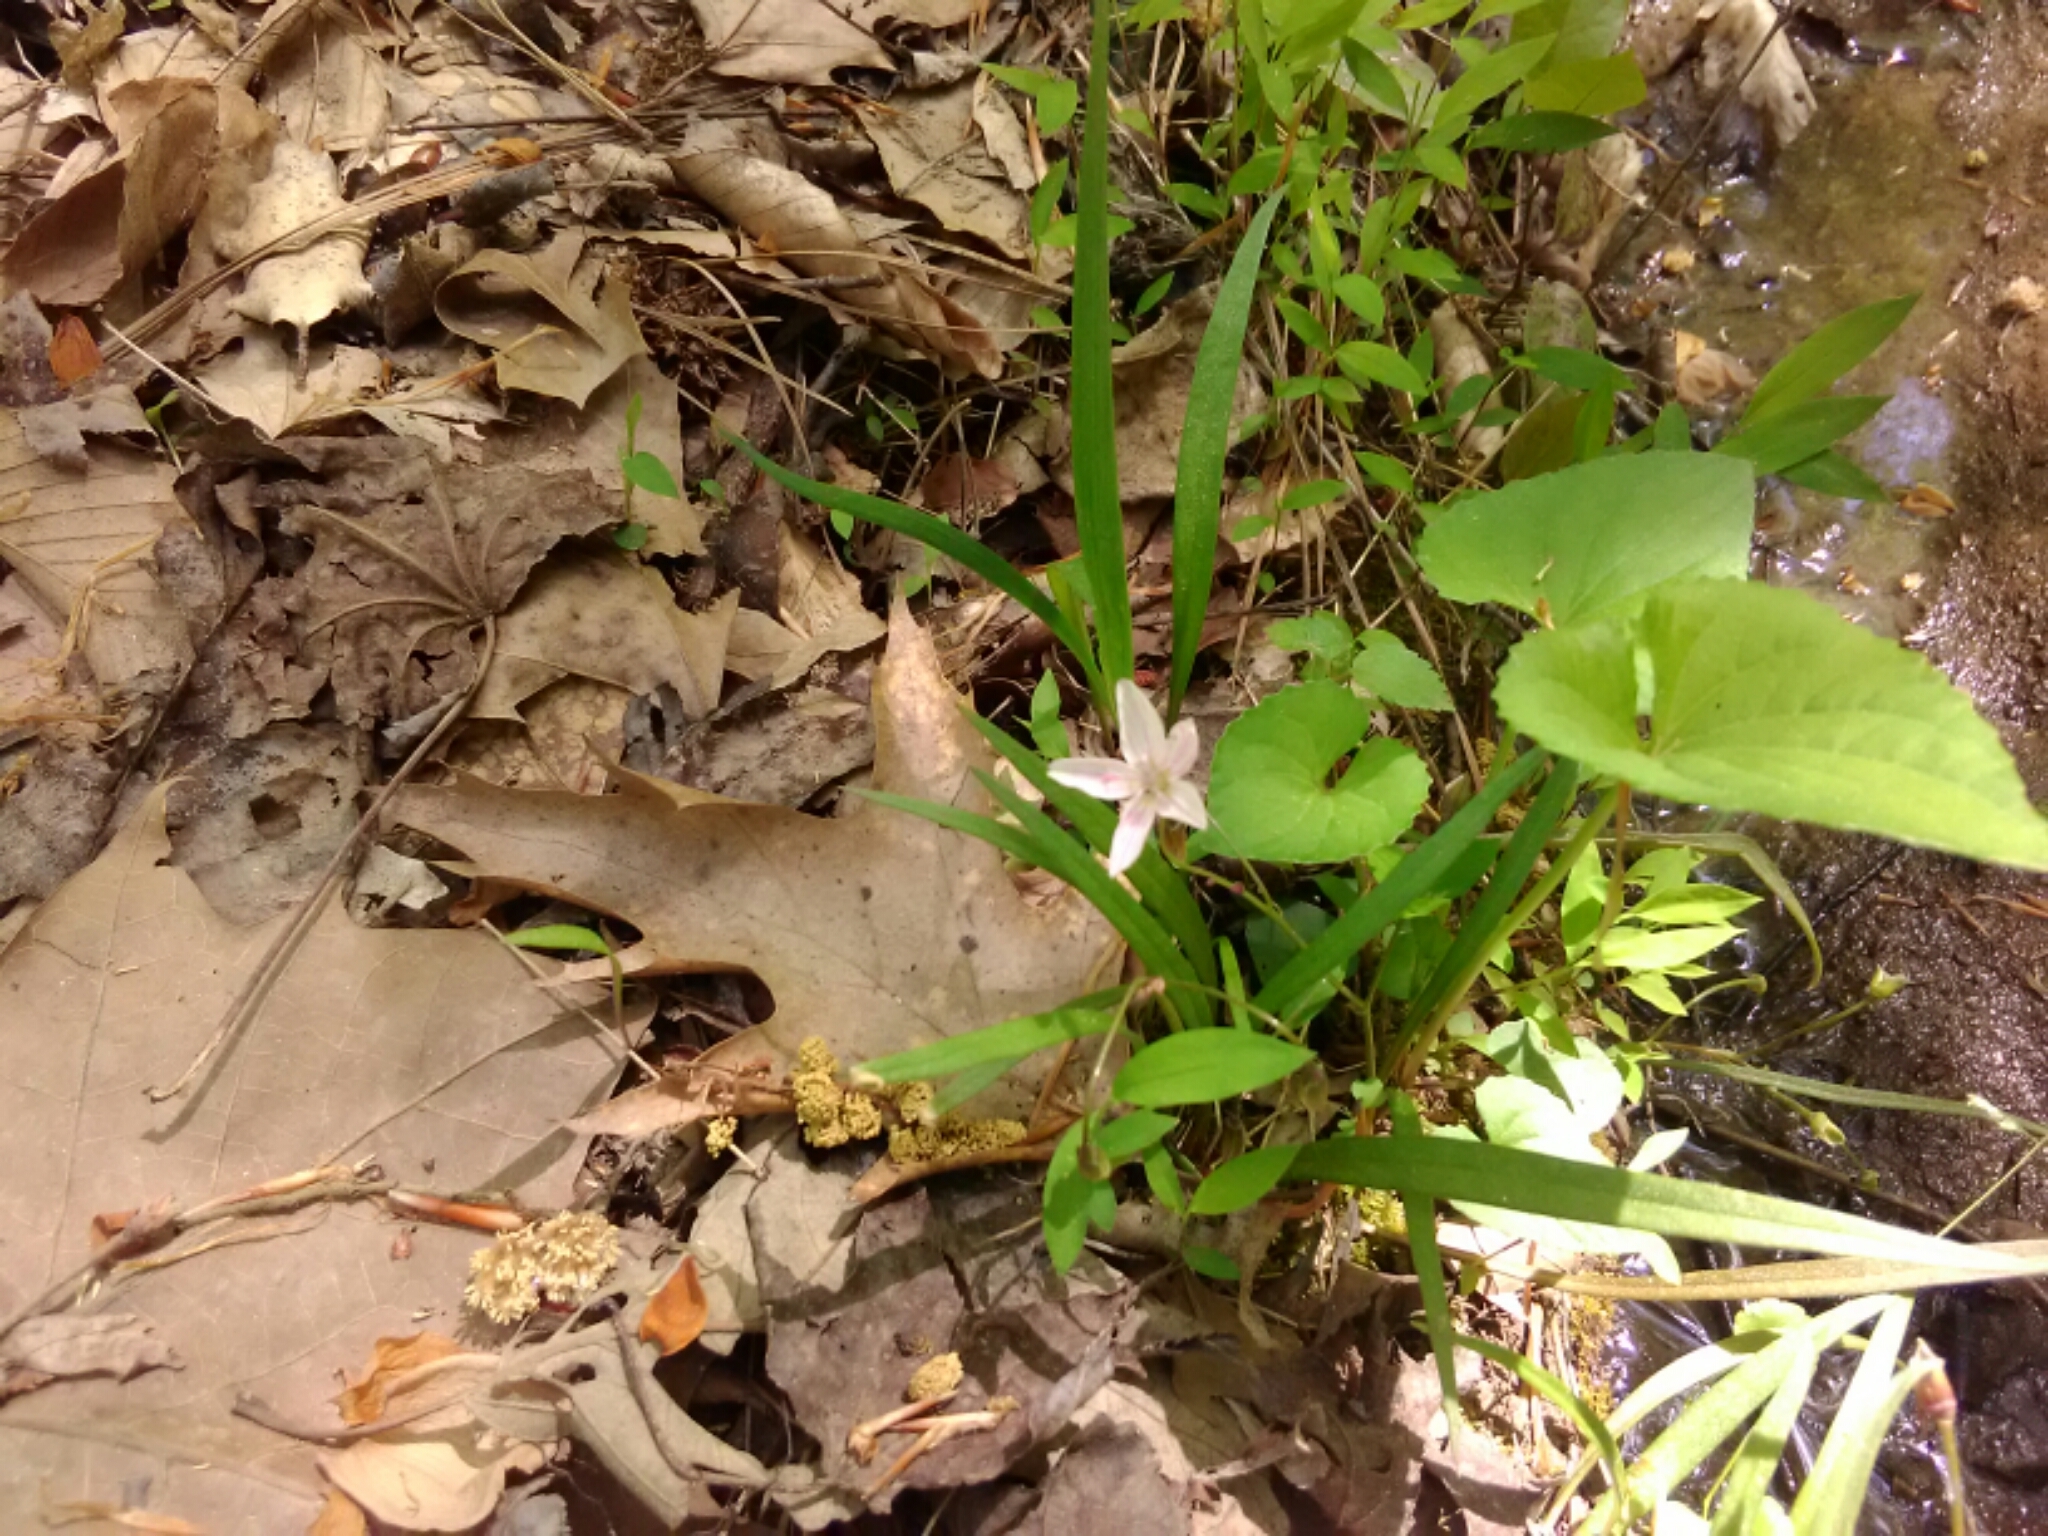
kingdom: Plantae
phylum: Tracheophyta
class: Magnoliopsida
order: Caryophyllales
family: Montiaceae
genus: Claytonia
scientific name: Claytonia virginica
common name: Virginia springbeauty
